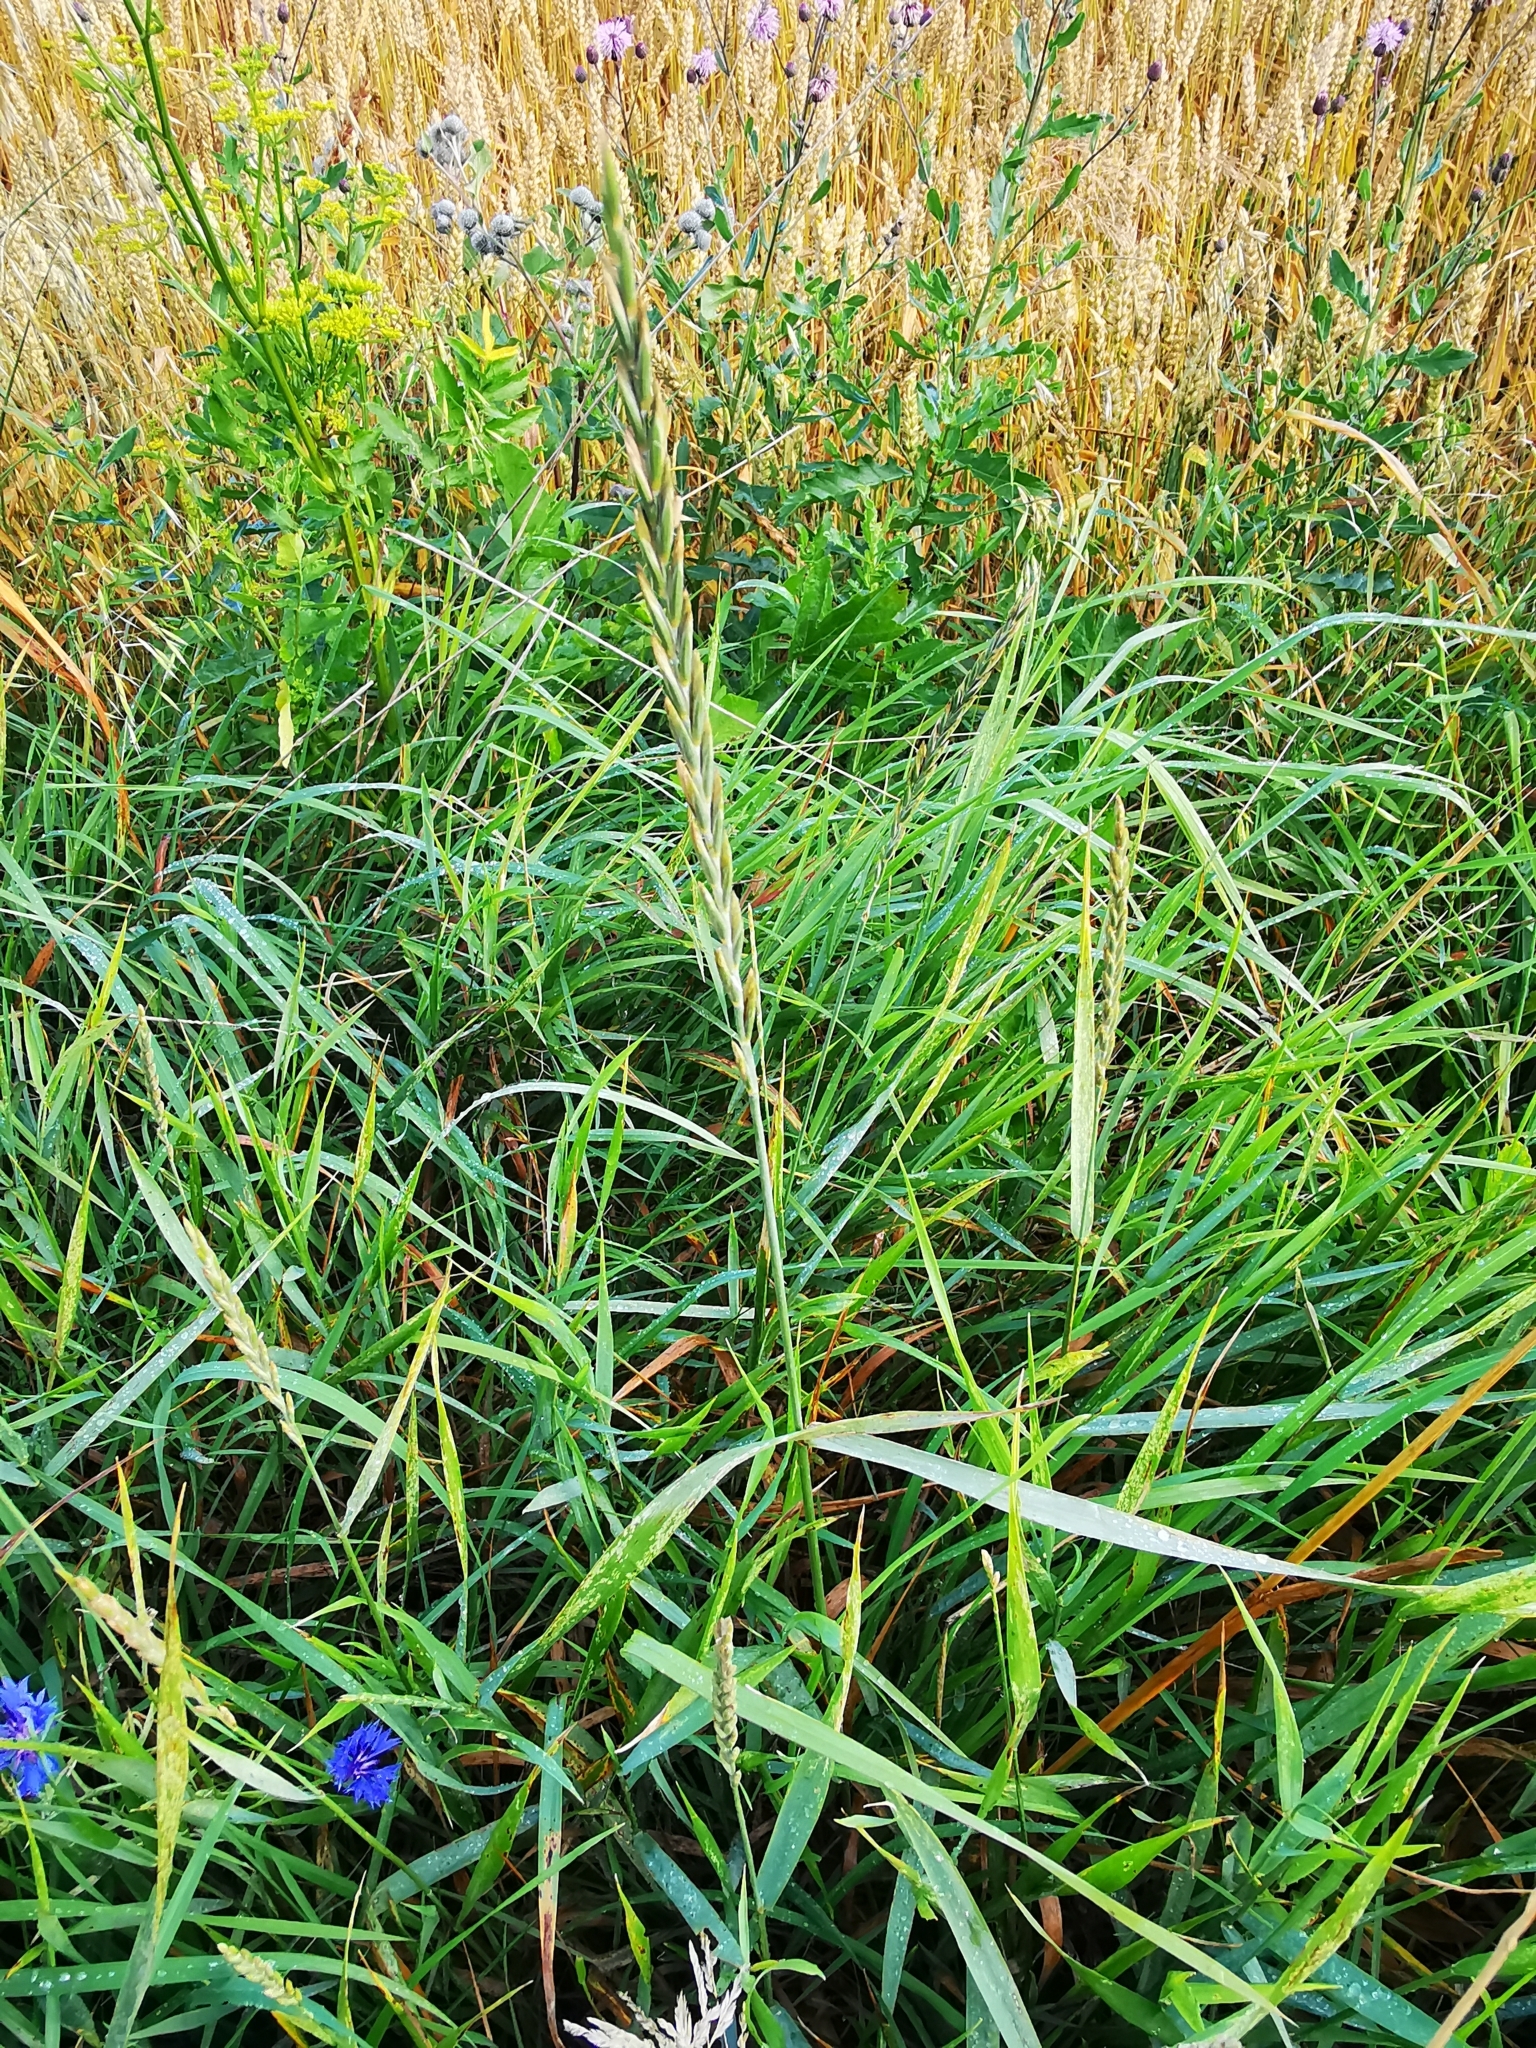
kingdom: Plantae
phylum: Tracheophyta
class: Liliopsida
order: Poales
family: Poaceae
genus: Elymus
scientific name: Elymus repens
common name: Quackgrass
